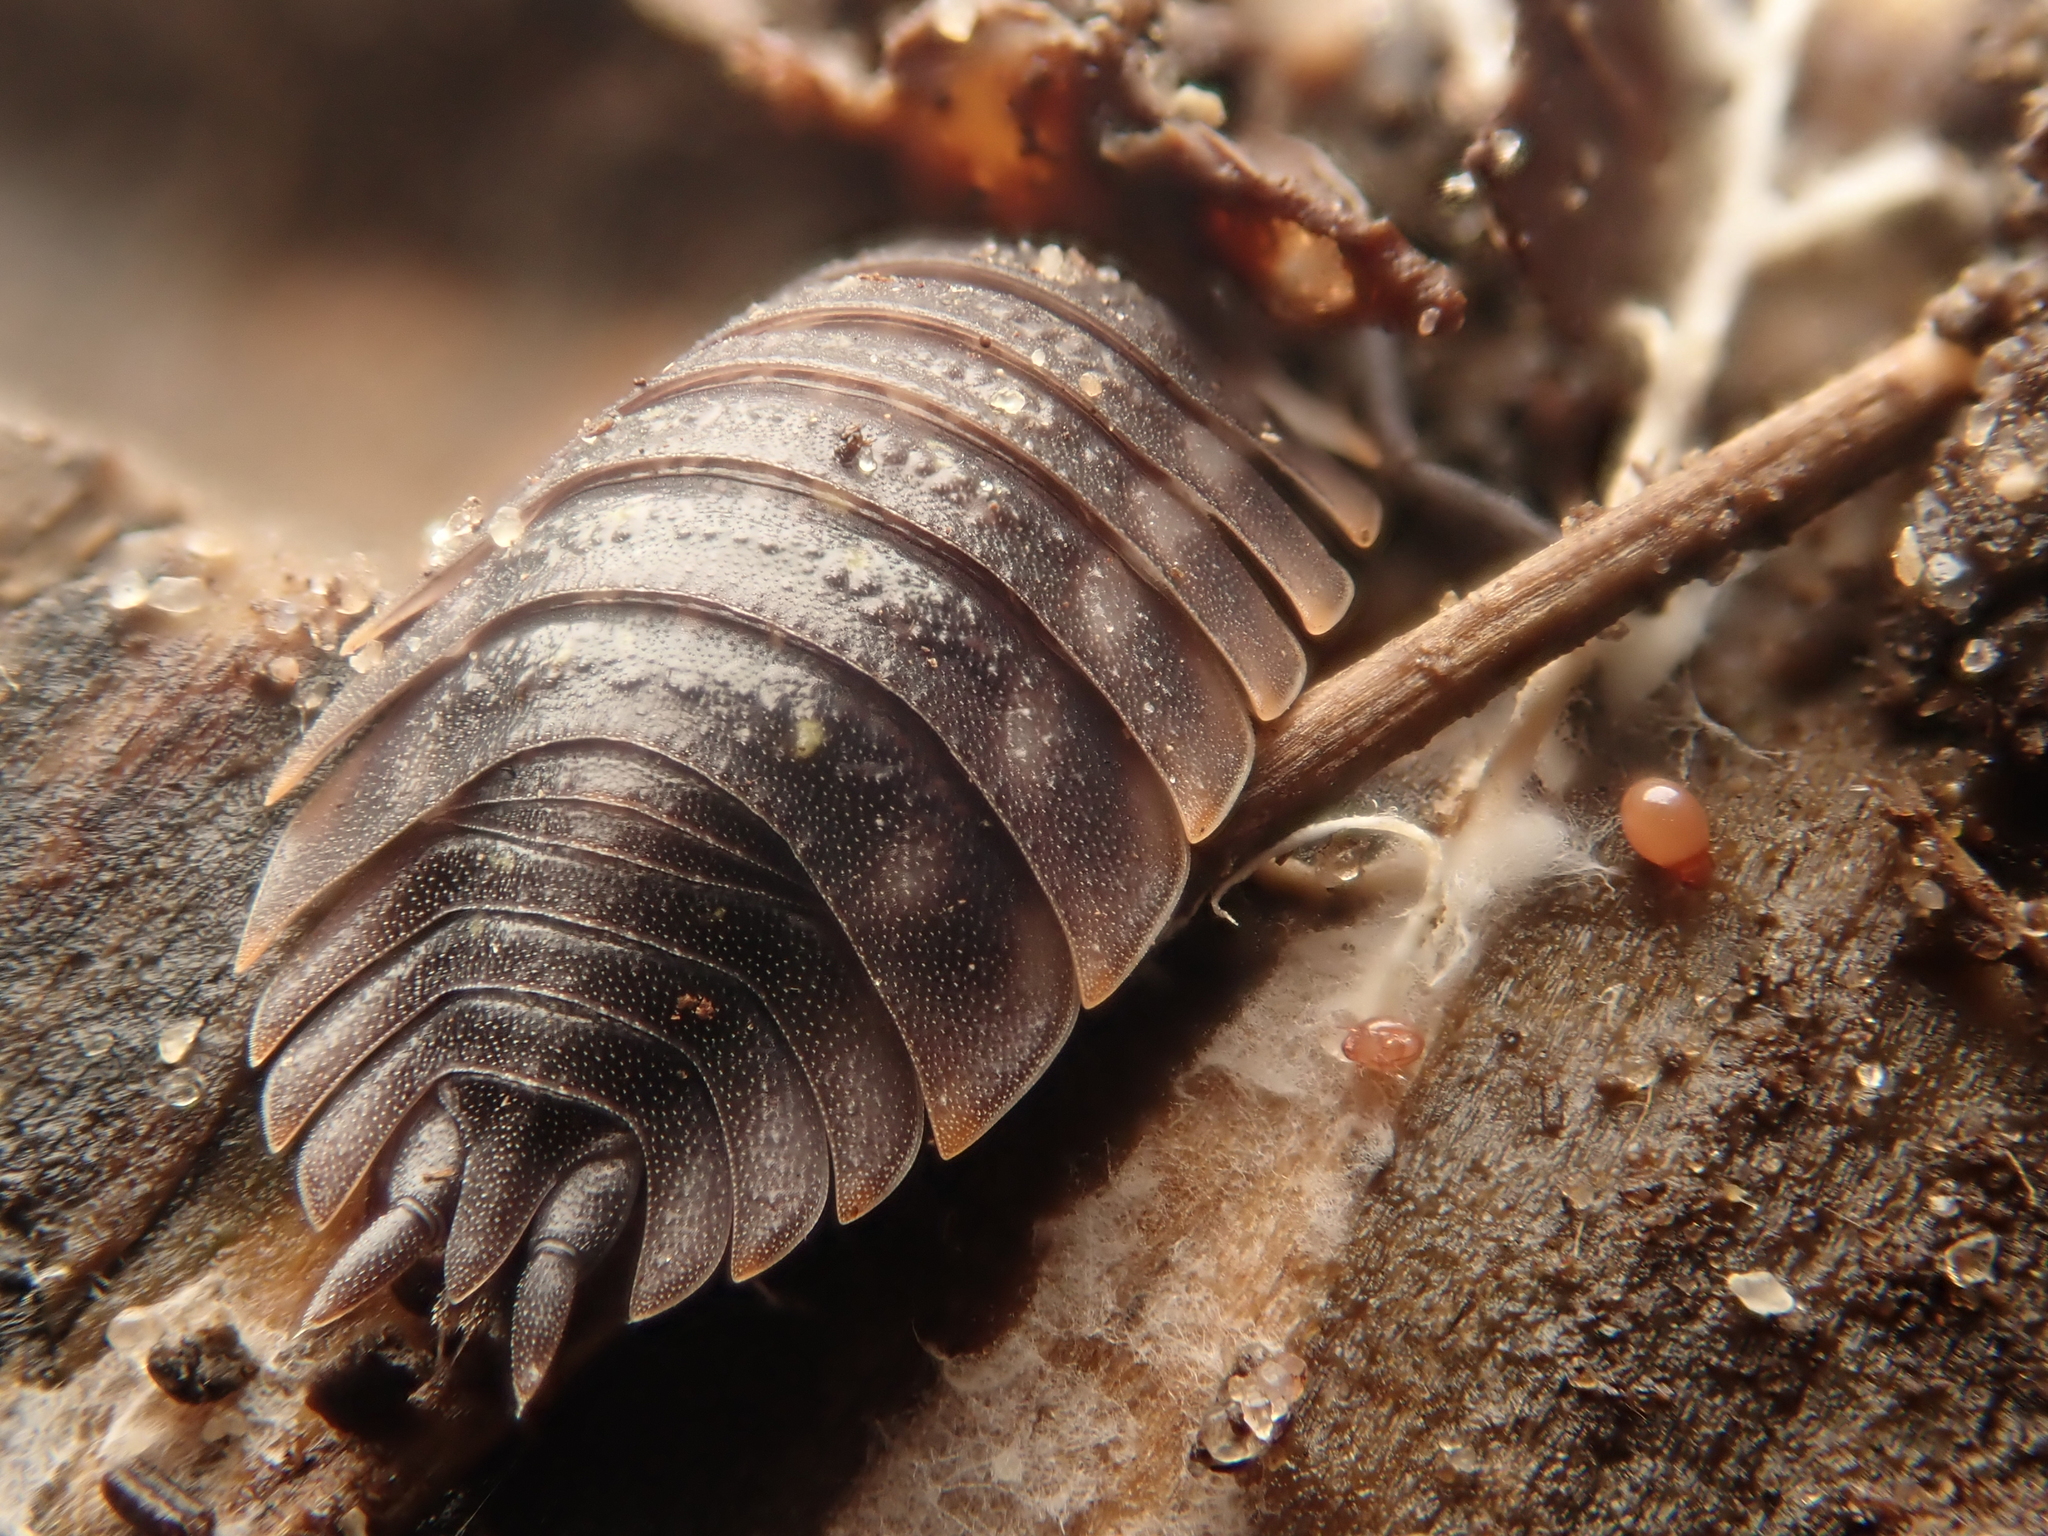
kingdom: Animalia
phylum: Arthropoda
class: Malacostraca
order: Isopoda
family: Oniscidae
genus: Oniscus
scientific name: Oniscus asellus
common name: Common shiny woodlouse
